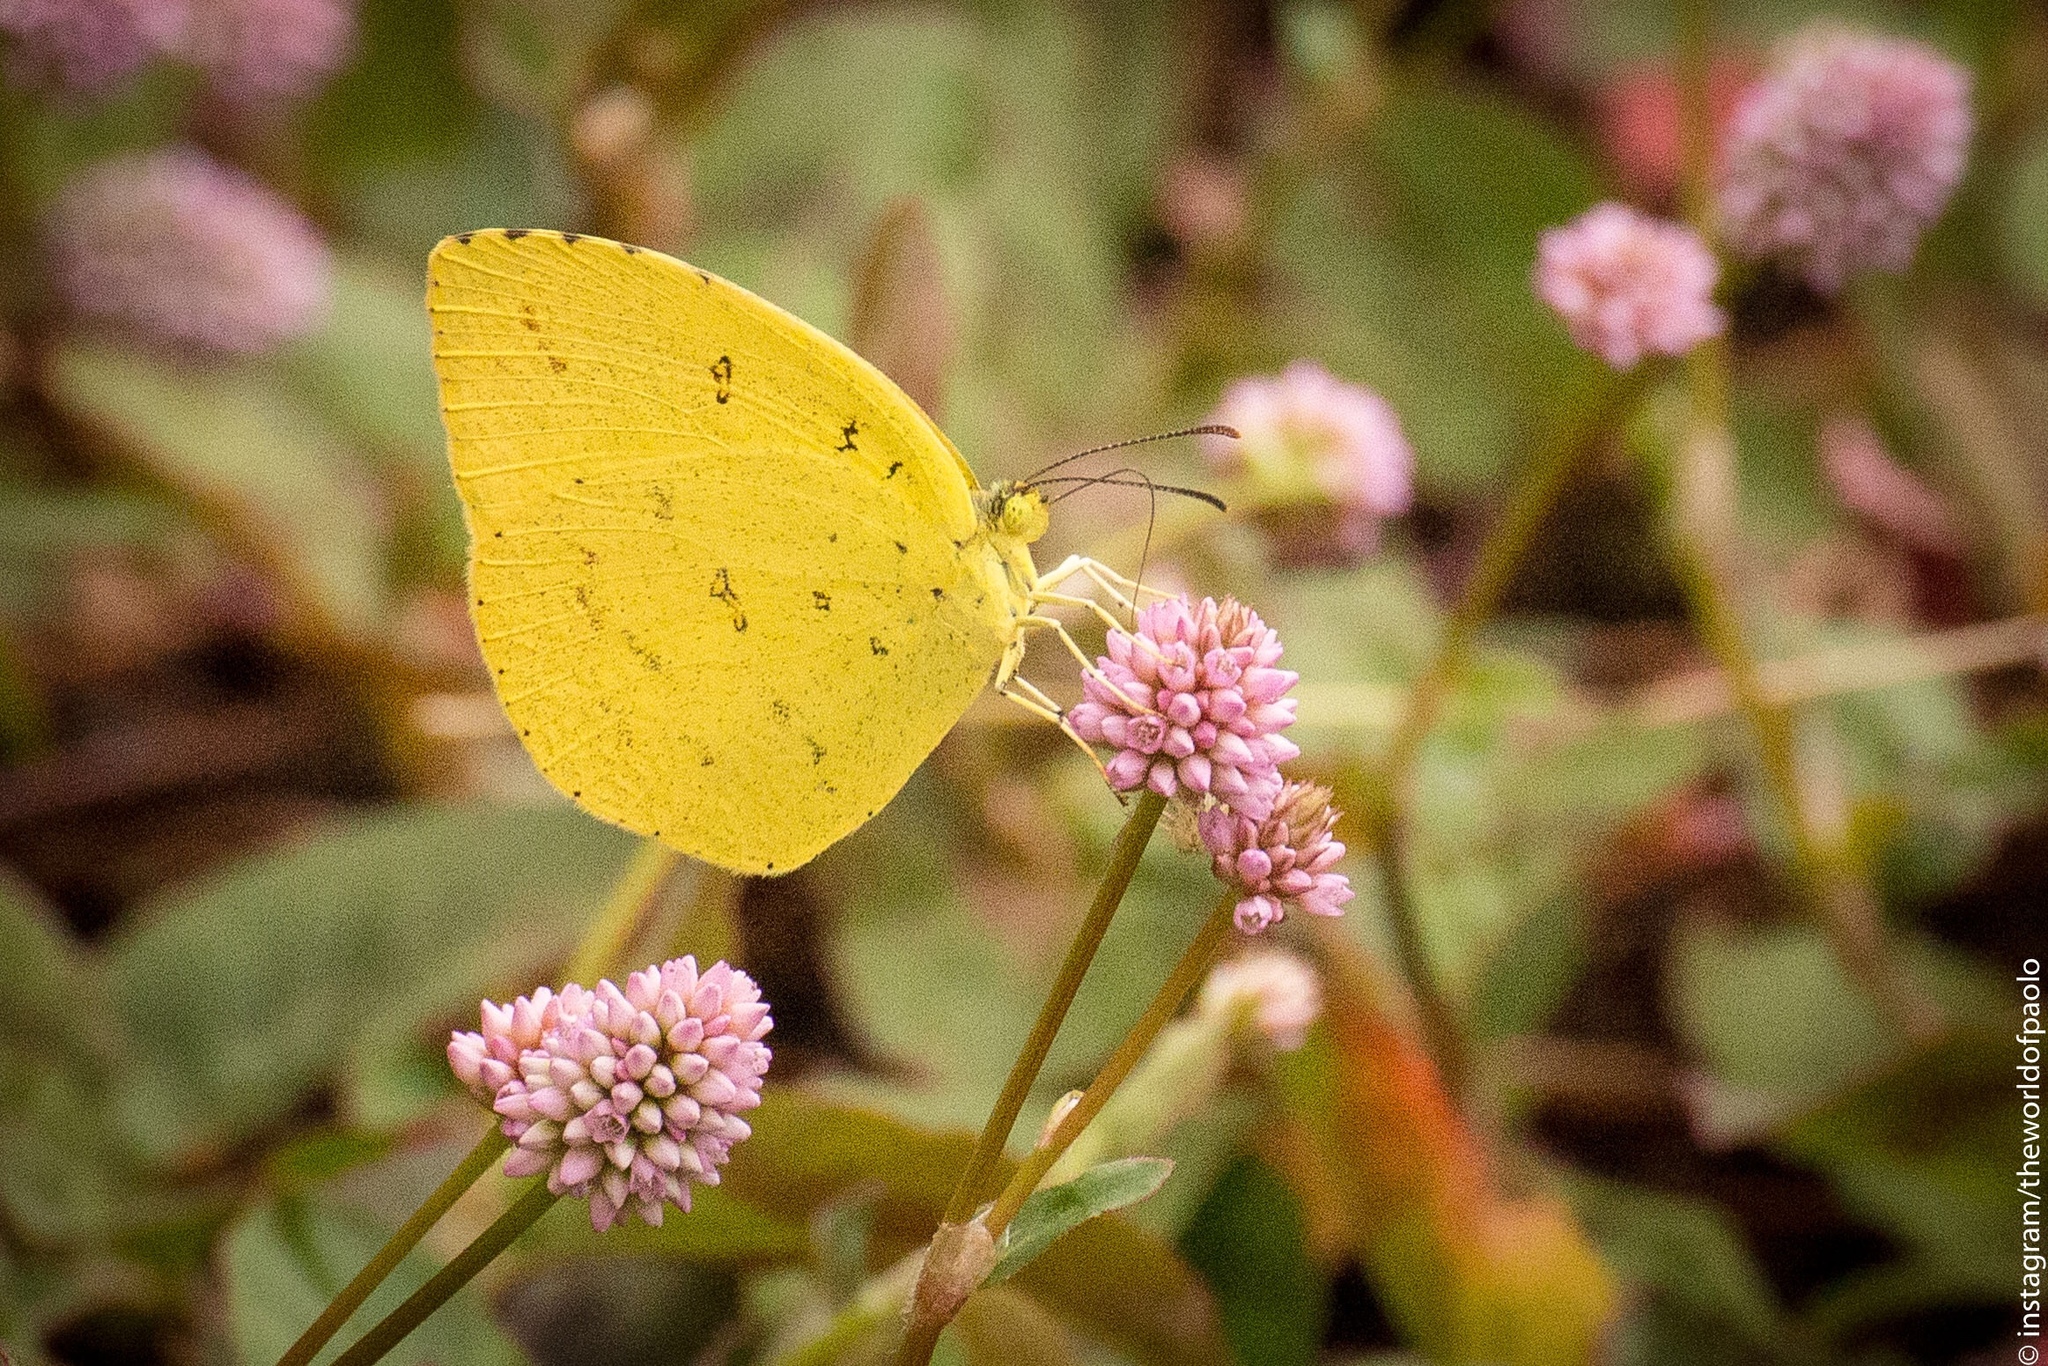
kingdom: Animalia
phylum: Arthropoda
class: Insecta
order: Lepidoptera
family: Pieridae
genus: Eurema
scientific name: Eurema mandarina
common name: Japanese common grass yellow
